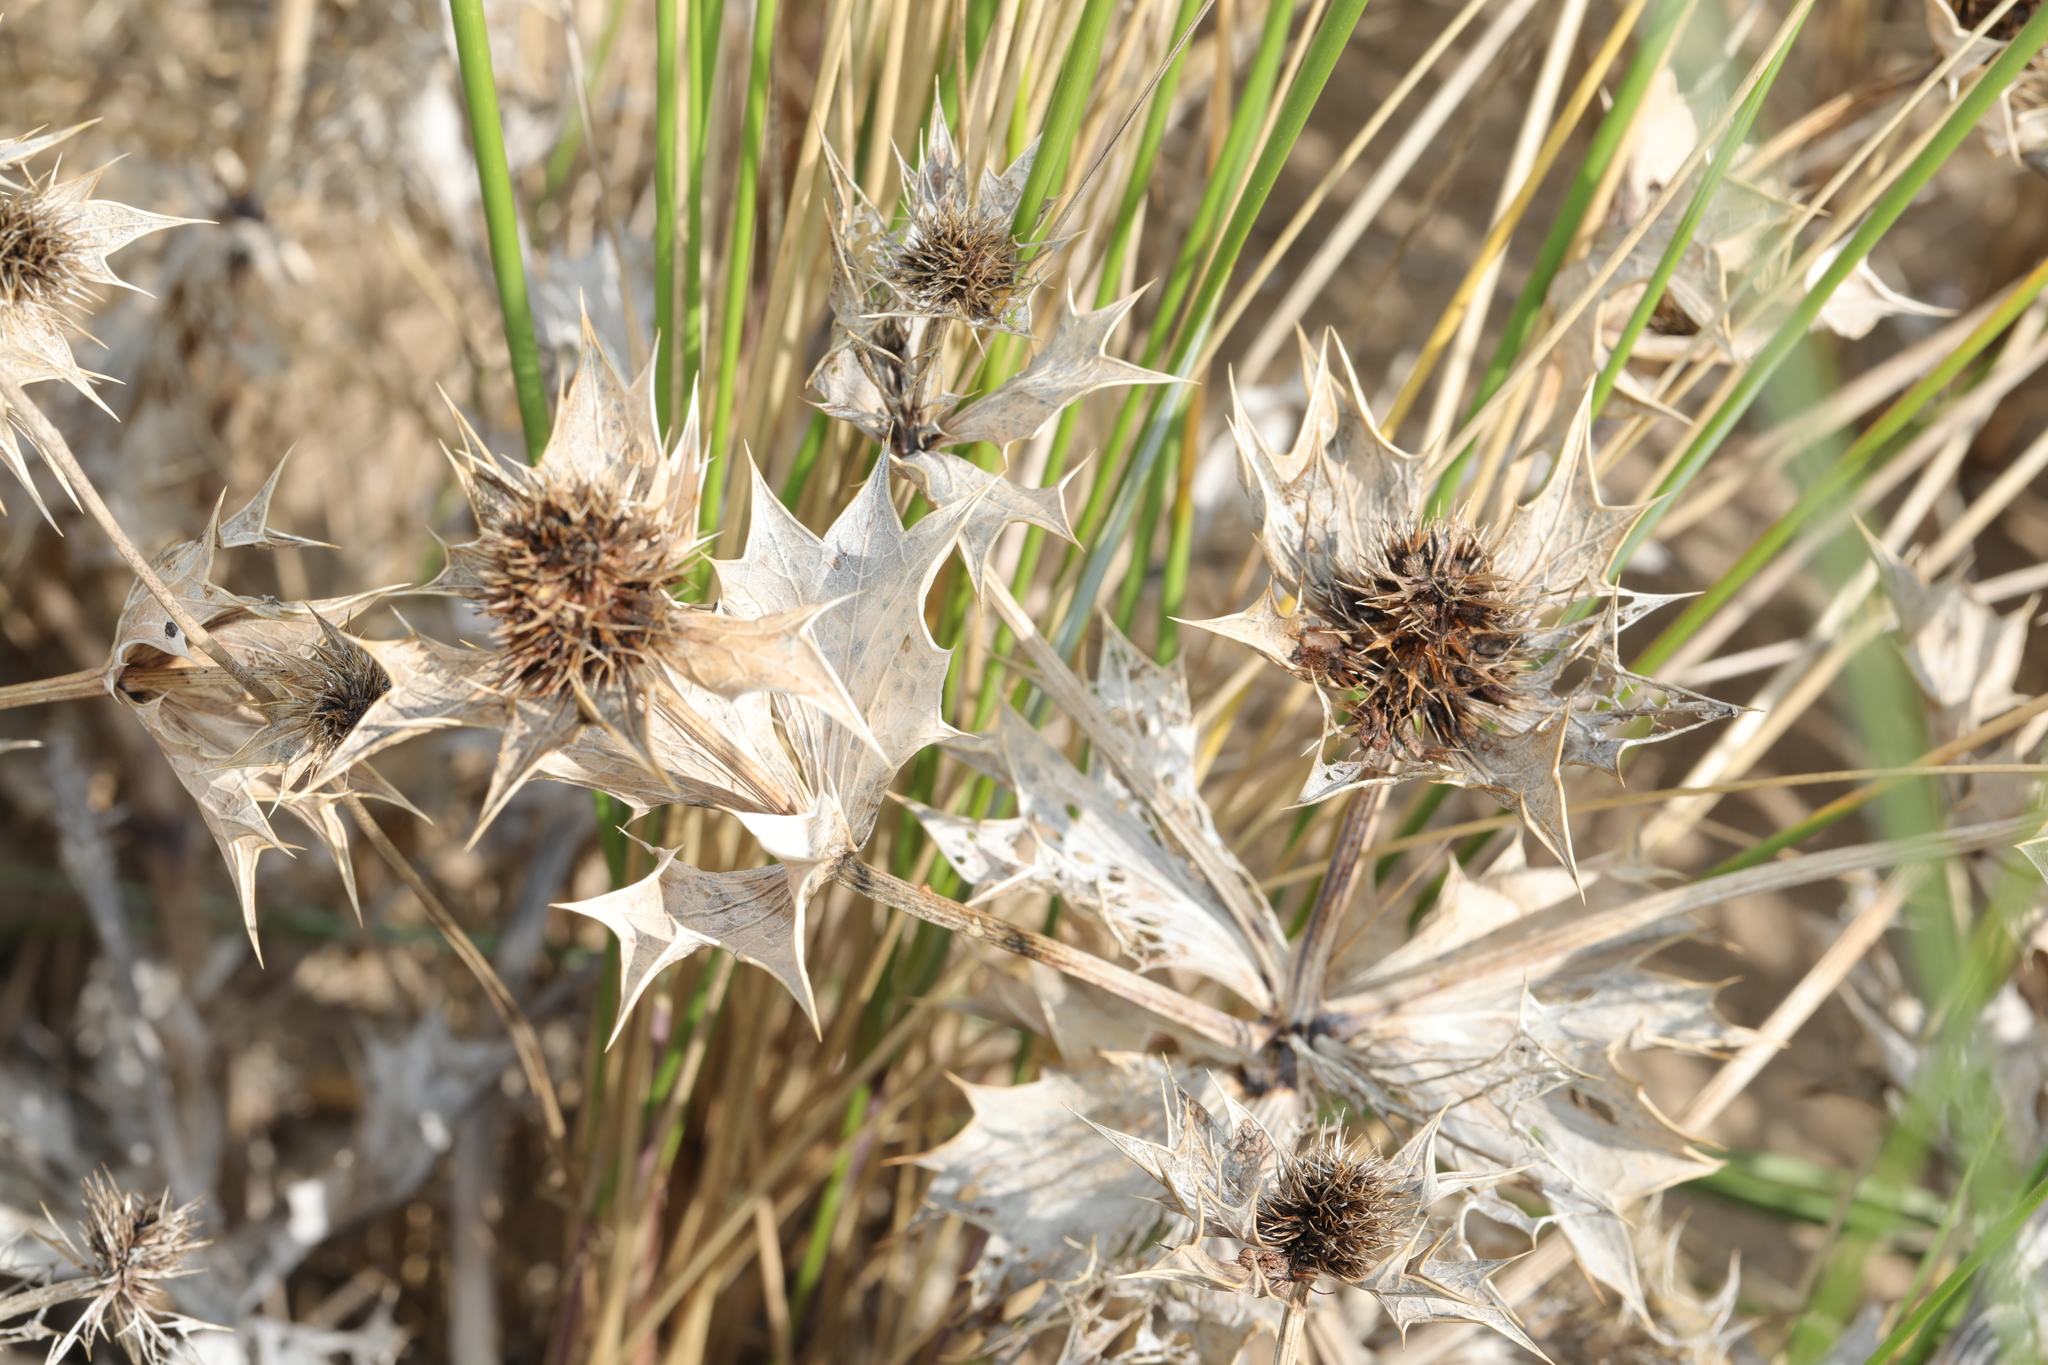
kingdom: Plantae
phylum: Tracheophyta
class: Magnoliopsida
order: Apiales
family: Apiaceae
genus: Eryngium
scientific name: Eryngium maritimum
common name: Sea-holly
